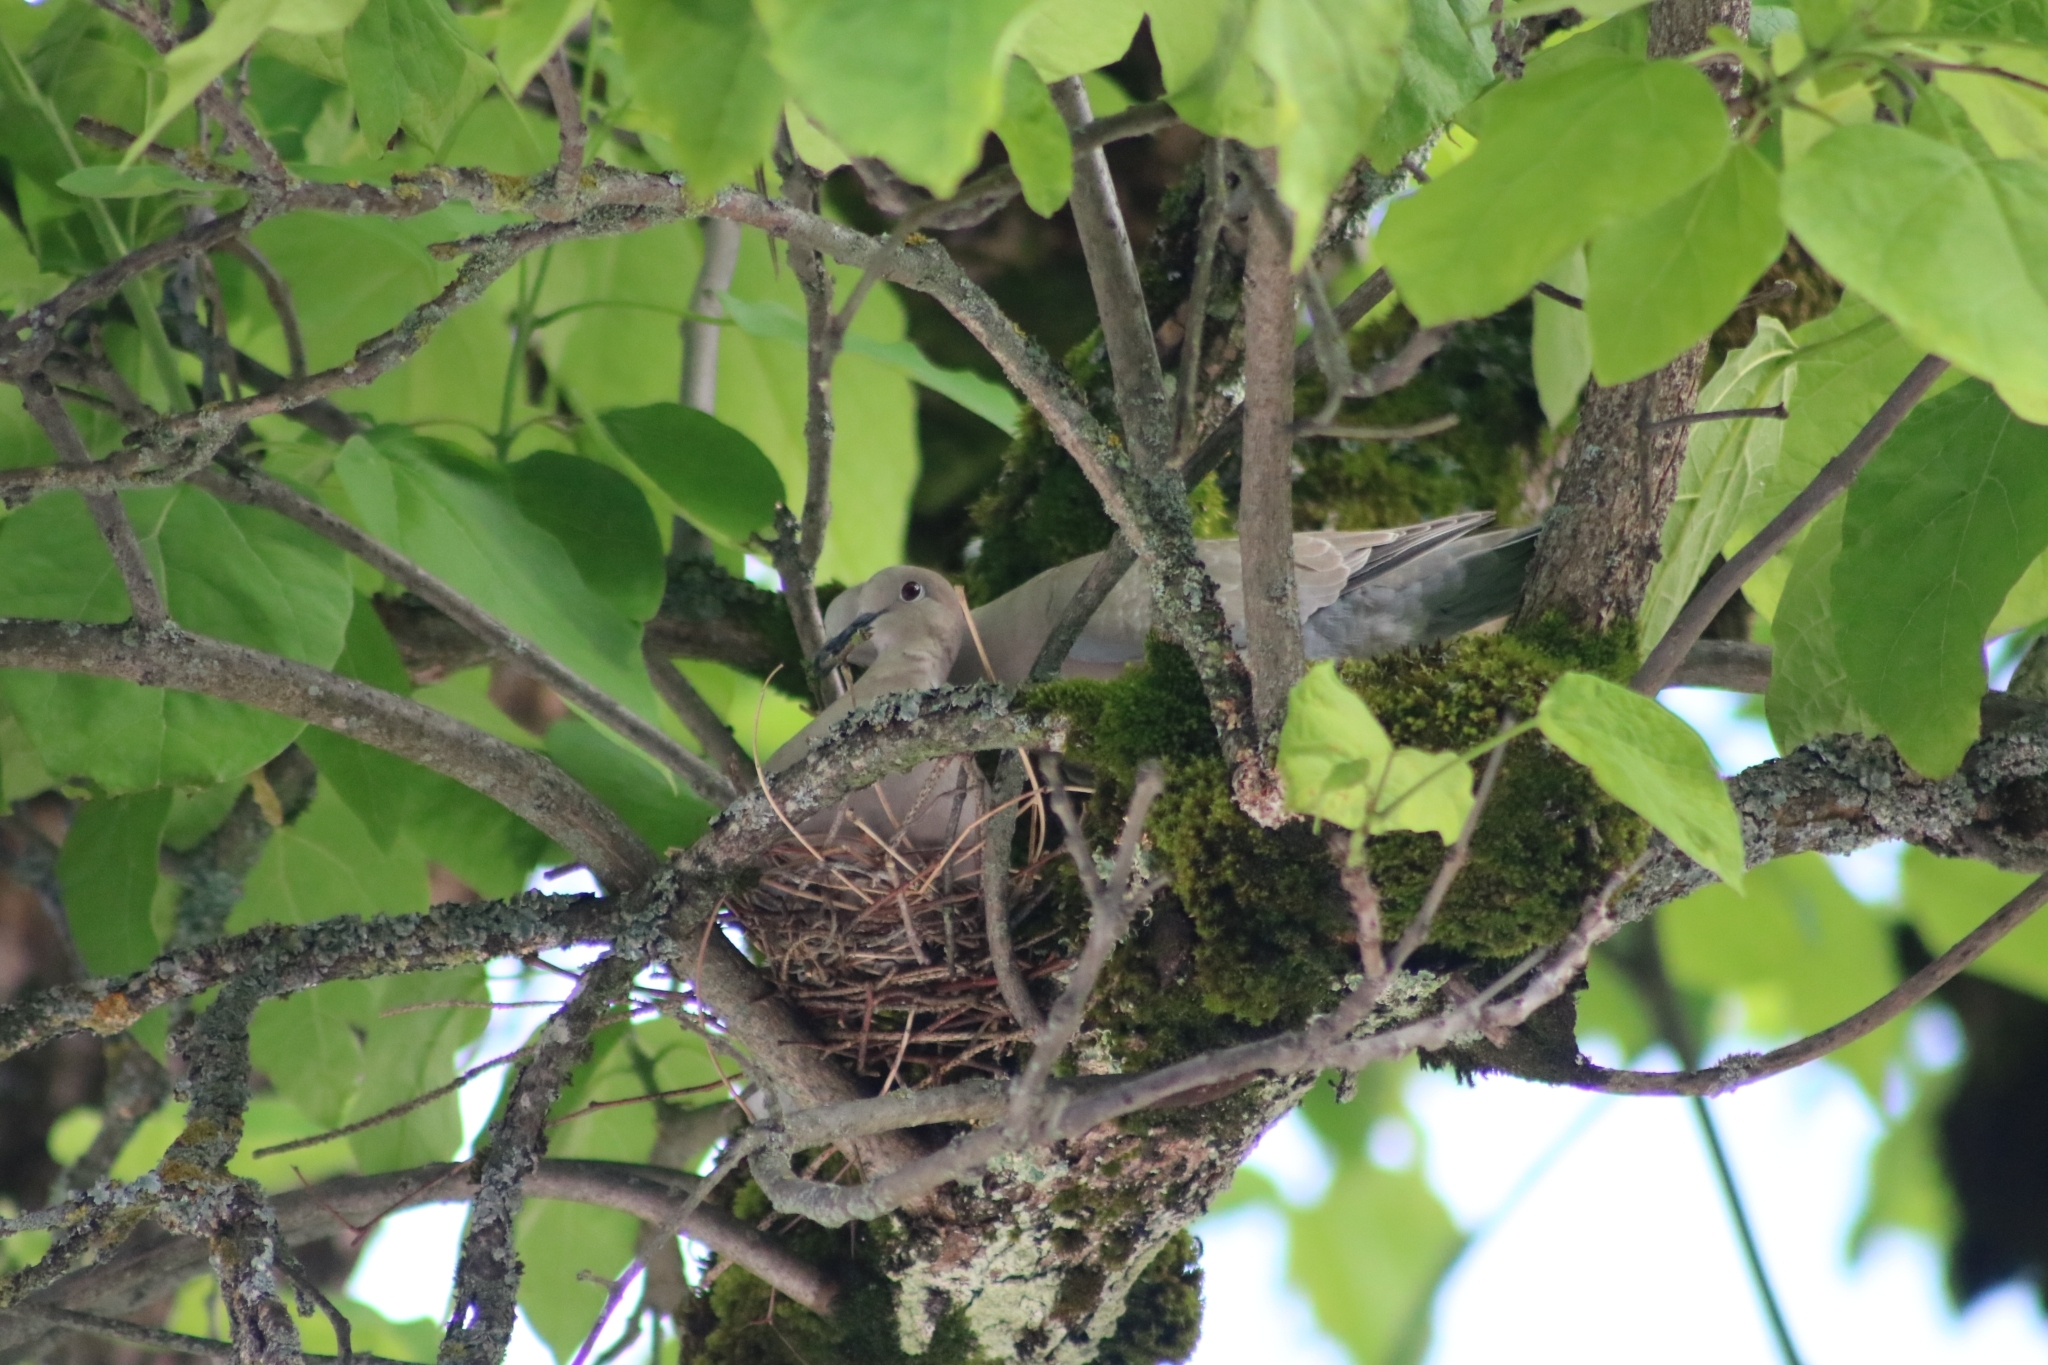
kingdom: Animalia
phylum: Chordata
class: Aves
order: Columbiformes
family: Columbidae
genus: Streptopelia
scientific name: Streptopelia decaocto
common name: Eurasian collared dove
